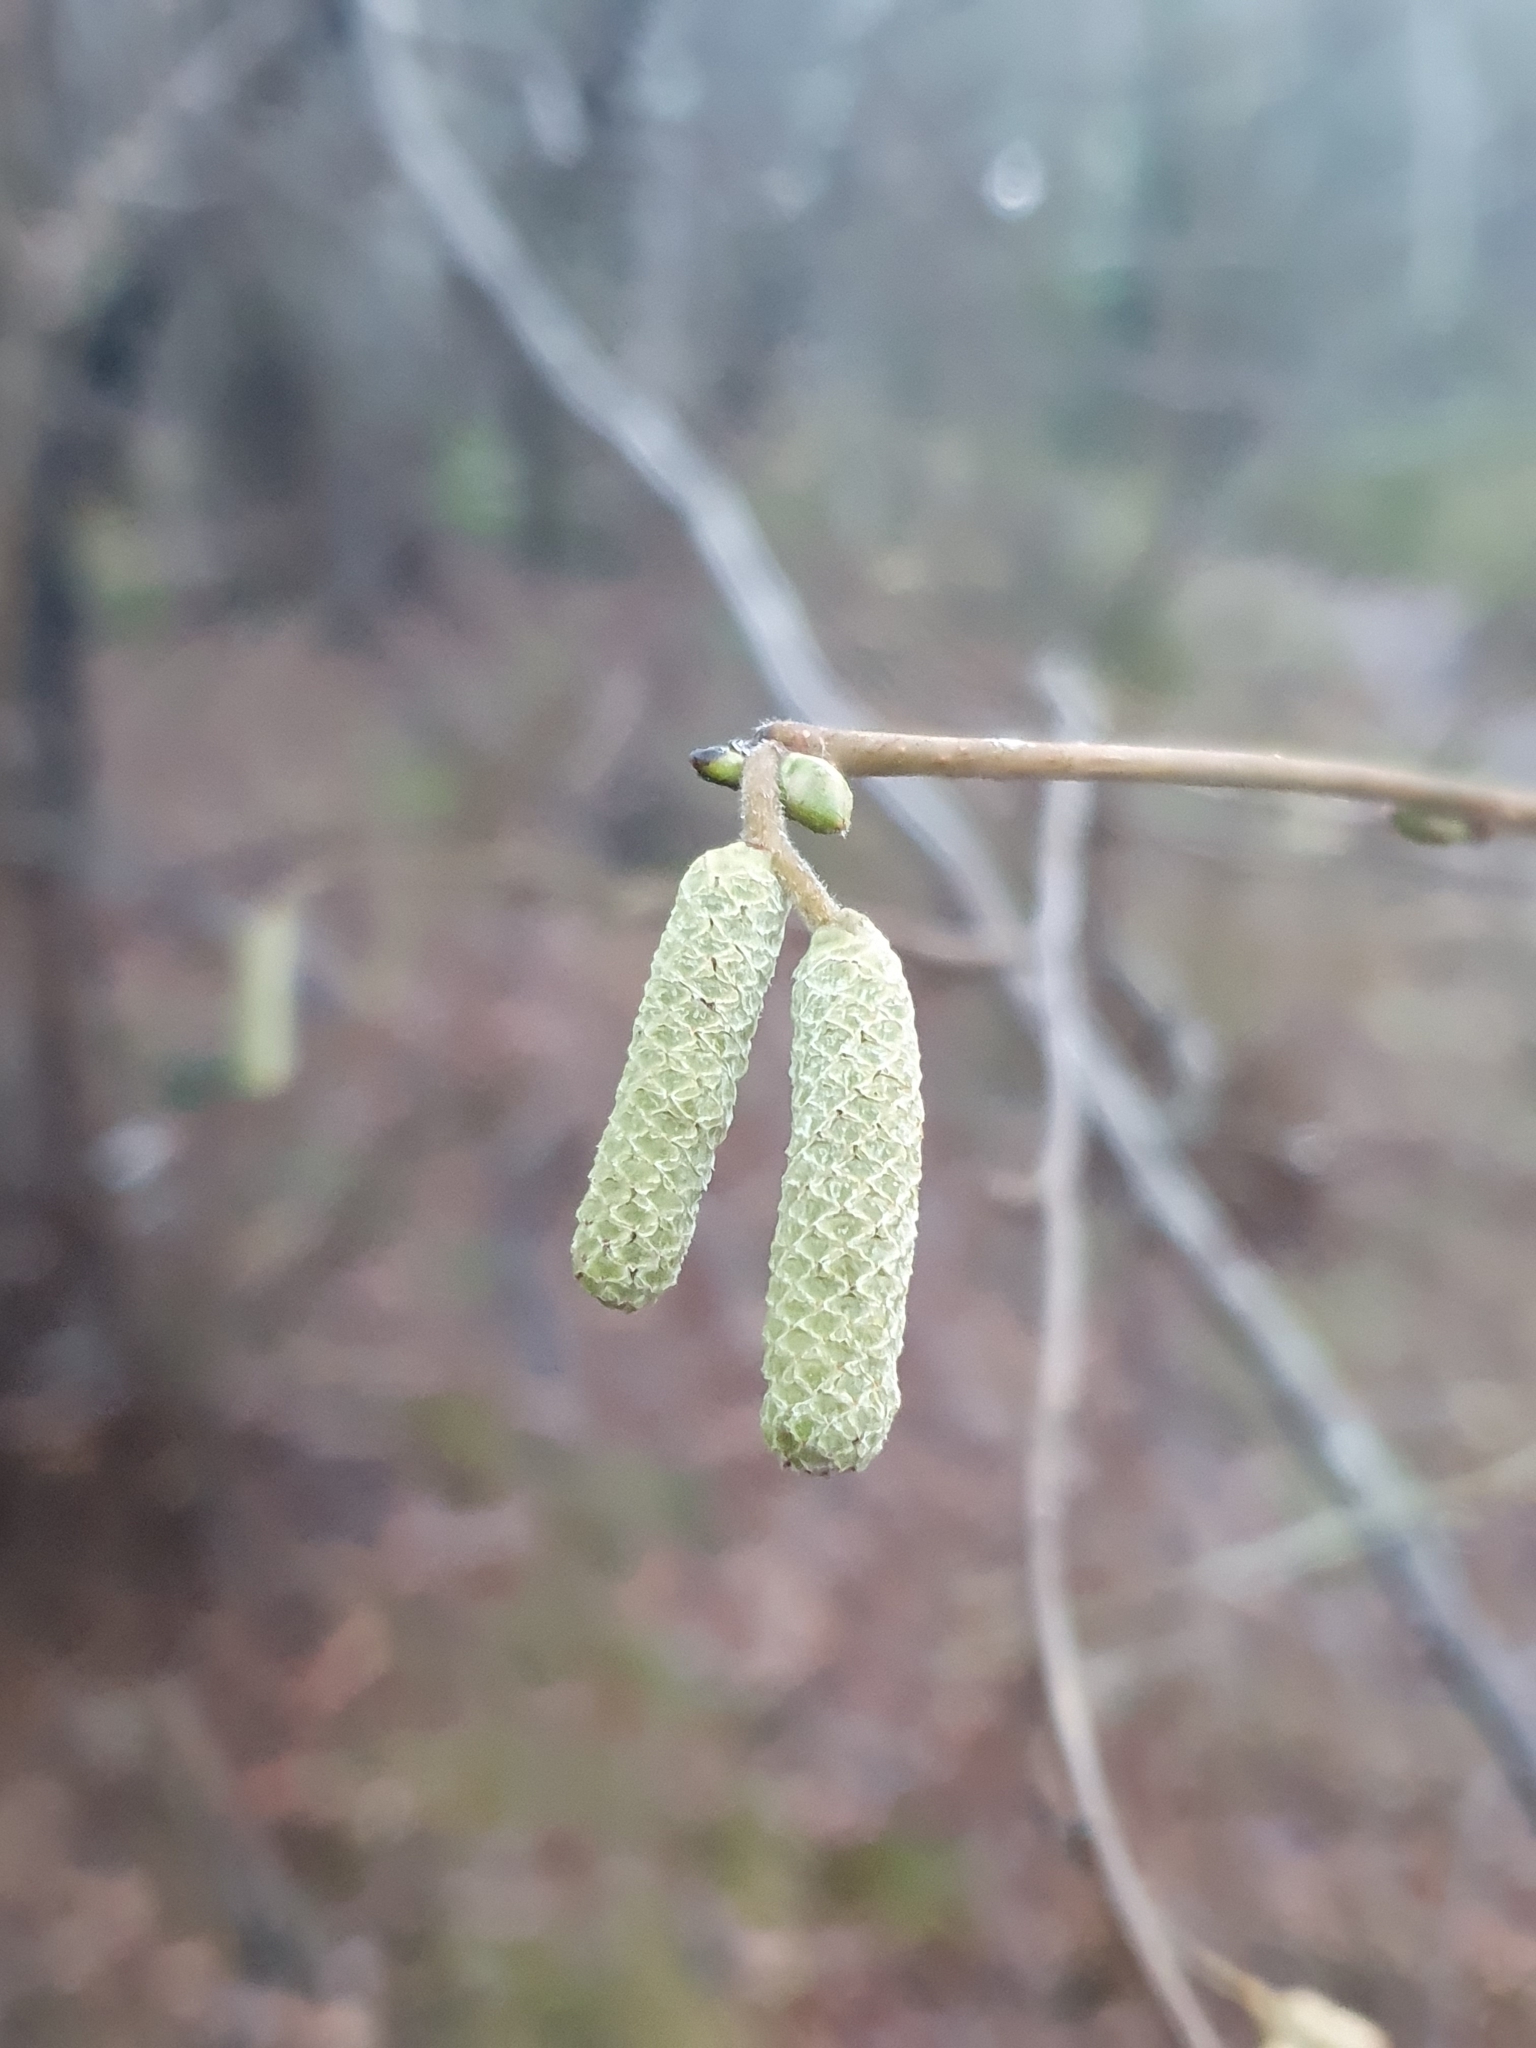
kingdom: Plantae
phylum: Tracheophyta
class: Magnoliopsida
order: Fagales
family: Betulaceae
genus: Corylus
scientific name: Corylus avellana
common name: European hazel
